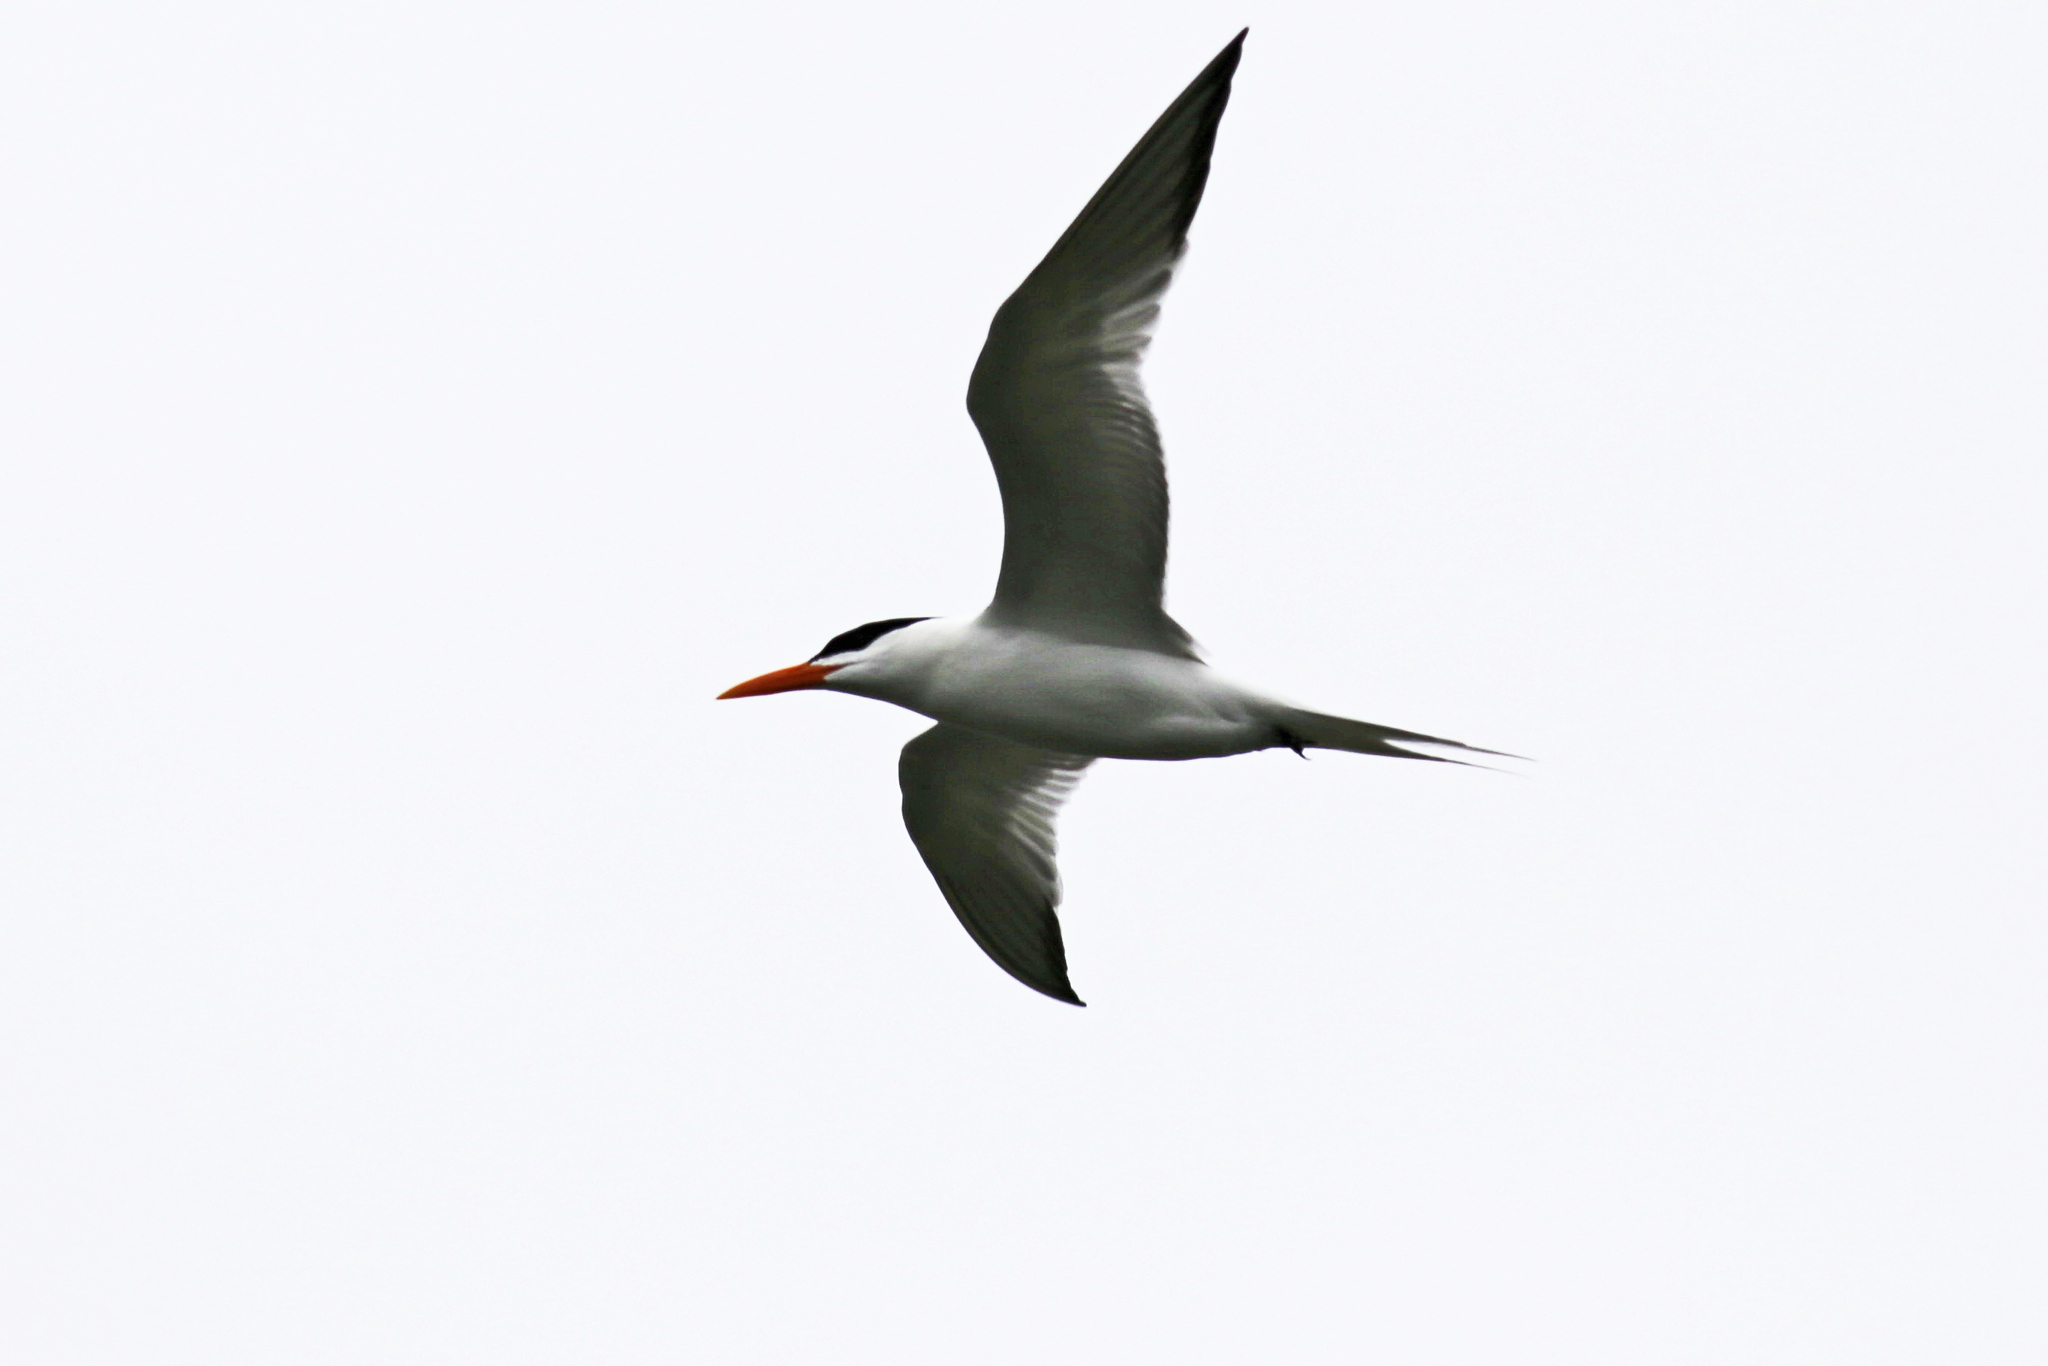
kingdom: Animalia
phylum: Chordata
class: Aves
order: Charadriiformes
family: Laridae
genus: Thalasseus
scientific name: Thalasseus maximus
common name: Royal tern
